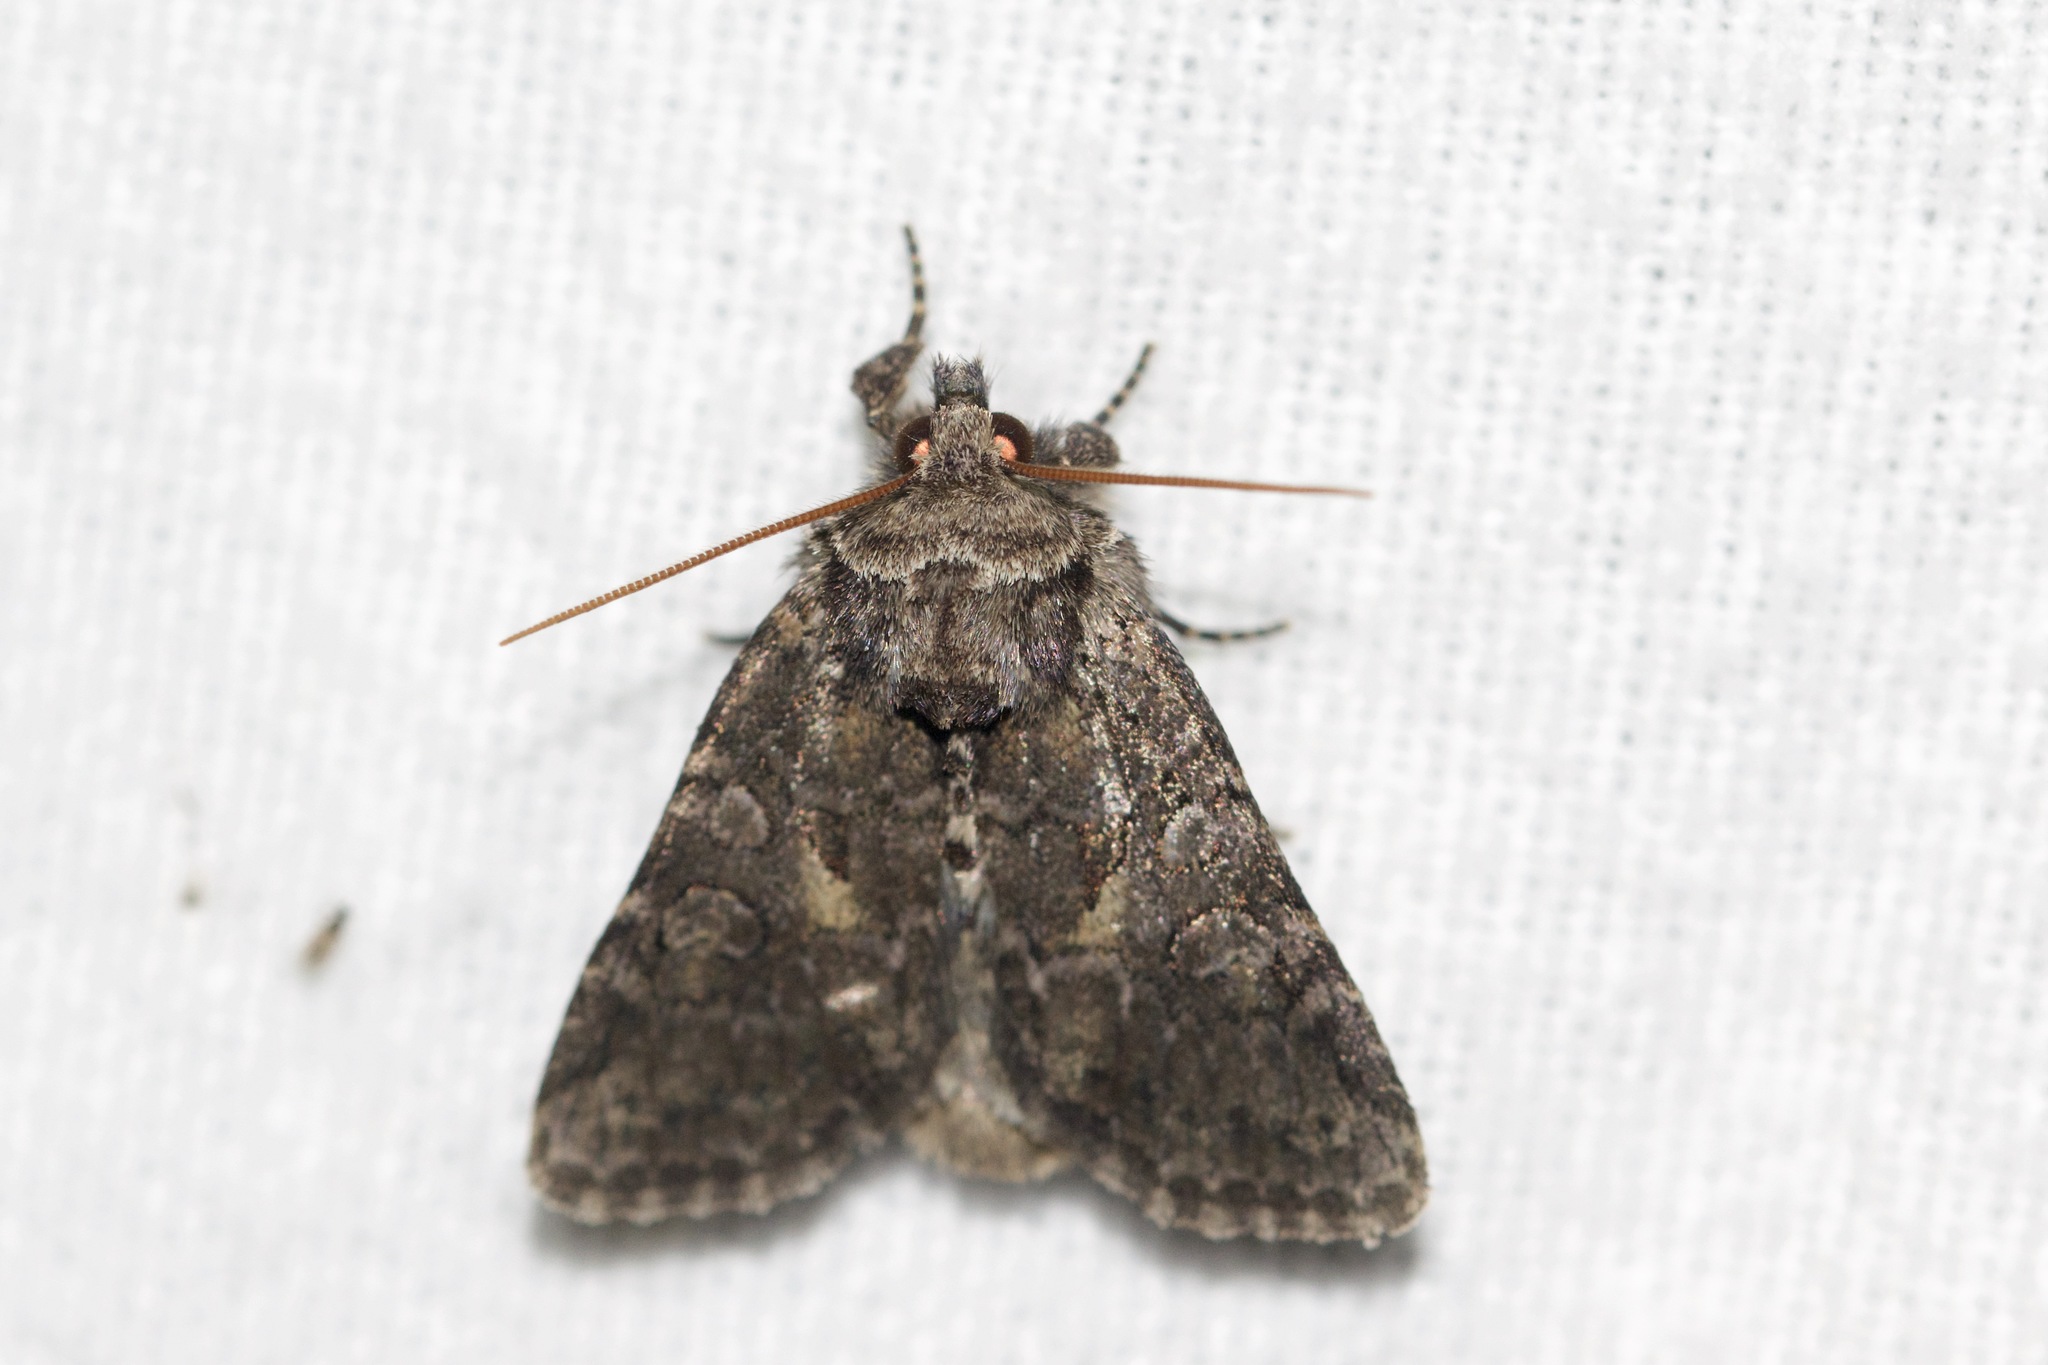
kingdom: Animalia
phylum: Arthropoda
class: Insecta
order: Lepidoptera
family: Noctuidae
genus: Orthodes
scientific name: Orthodes detracta
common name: Disparaged arches moth
